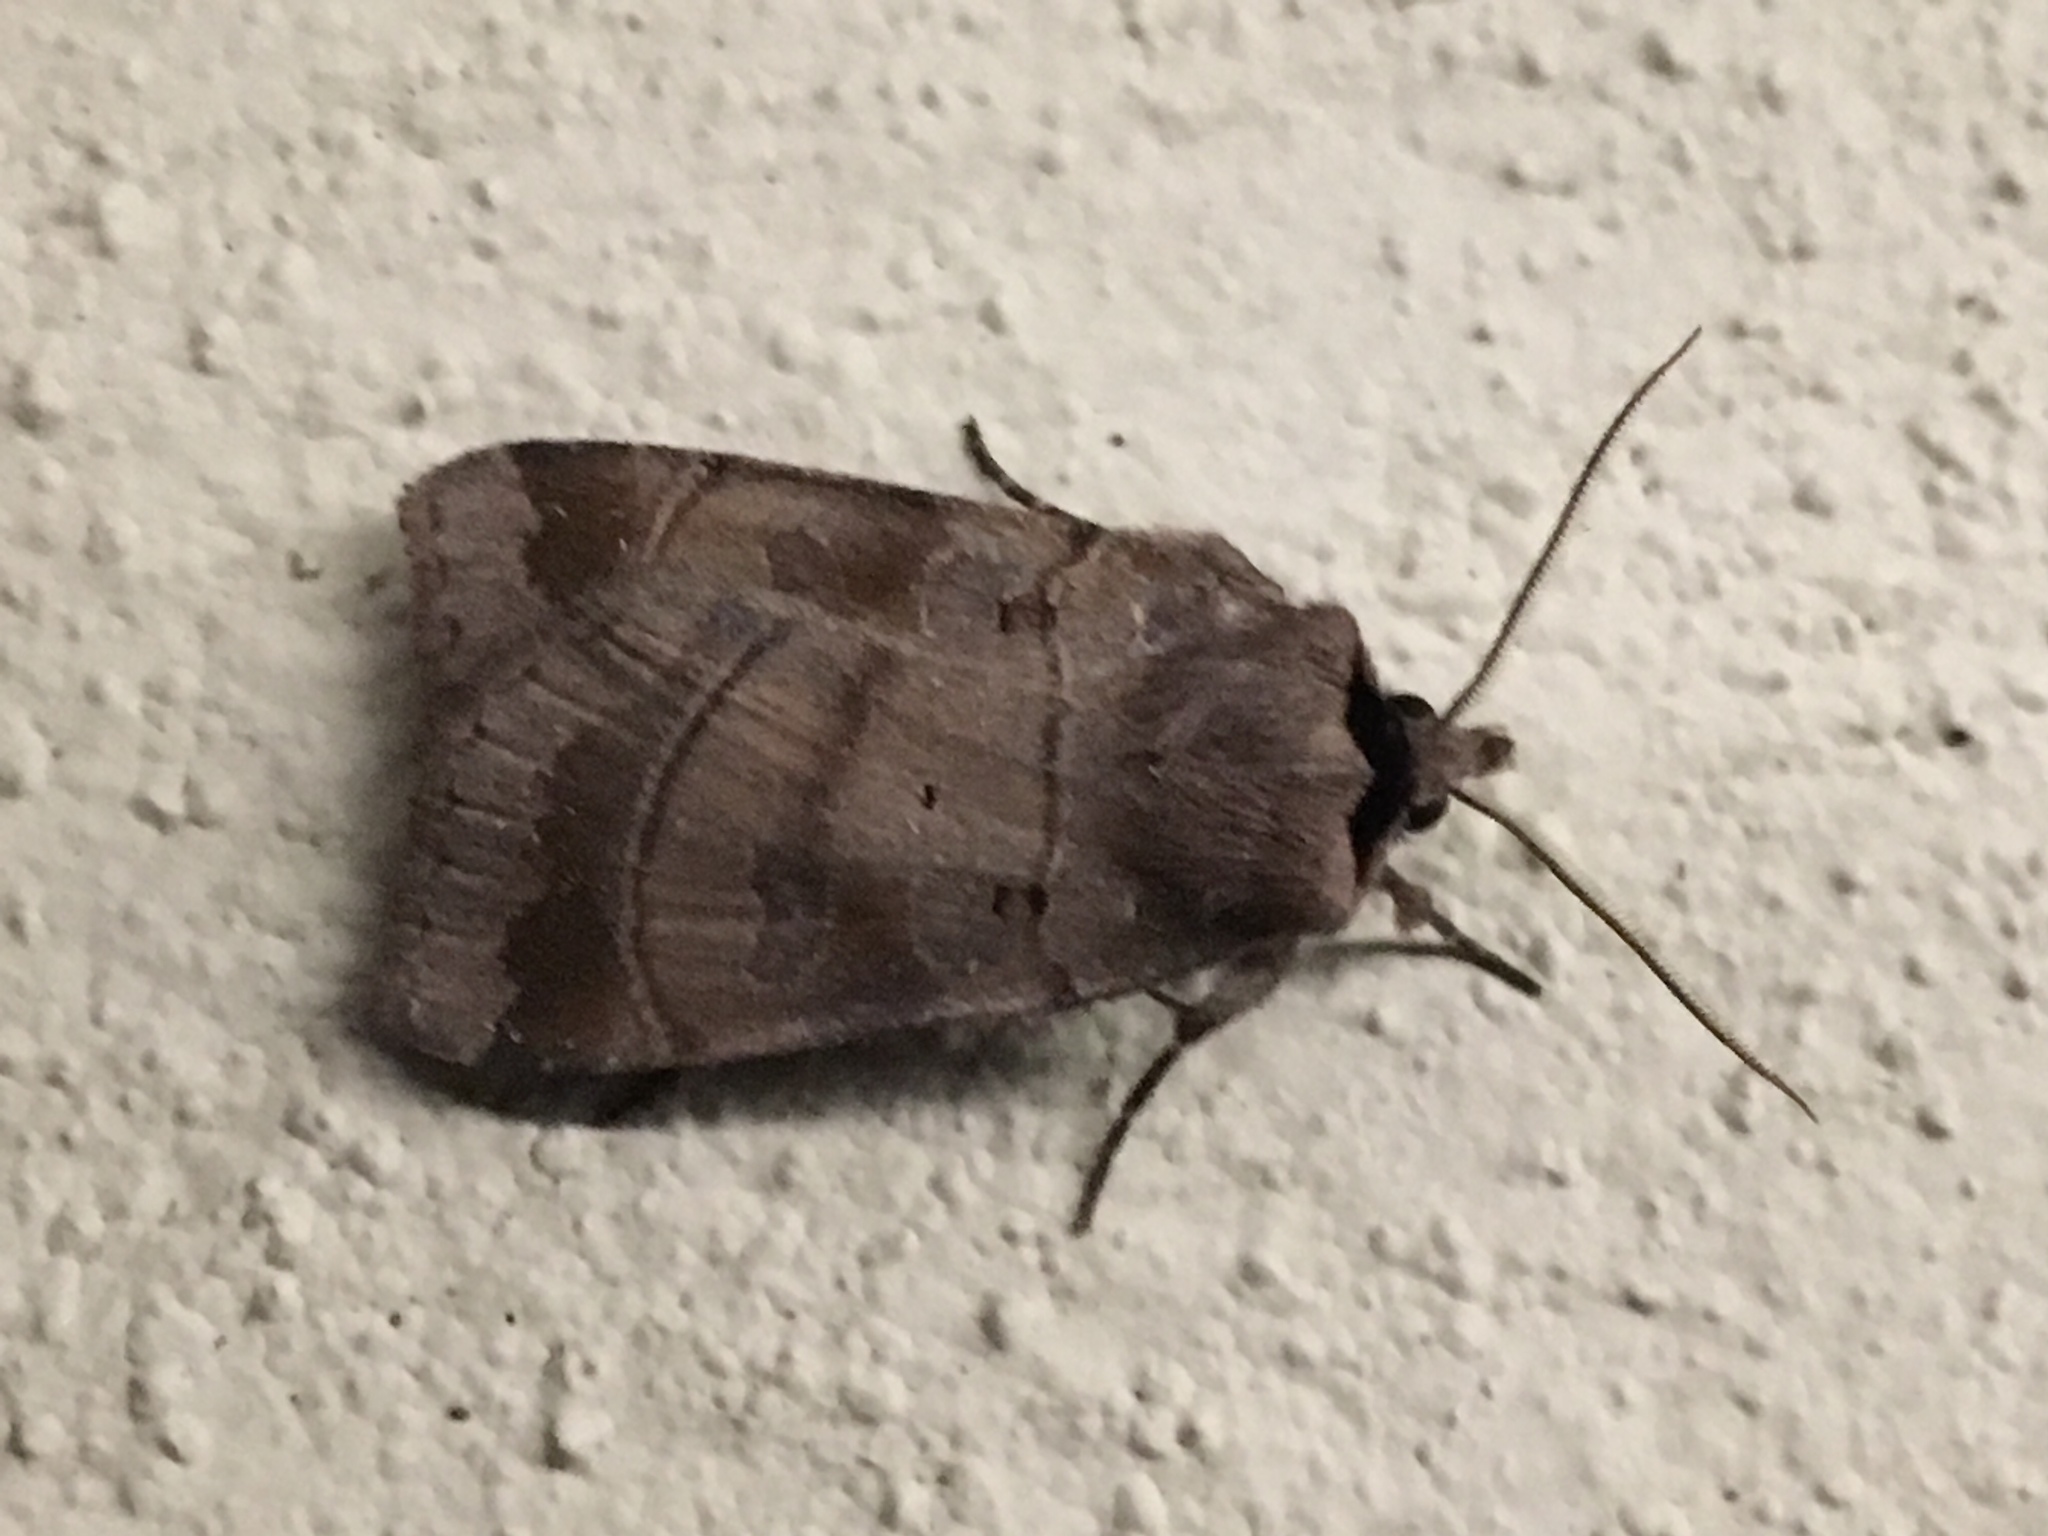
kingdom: Animalia
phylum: Arthropoda
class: Insecta
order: Lepidoptera
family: Noctuidae
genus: Agnorisma
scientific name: Agnorisma badinodis
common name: Pale-banded dart
